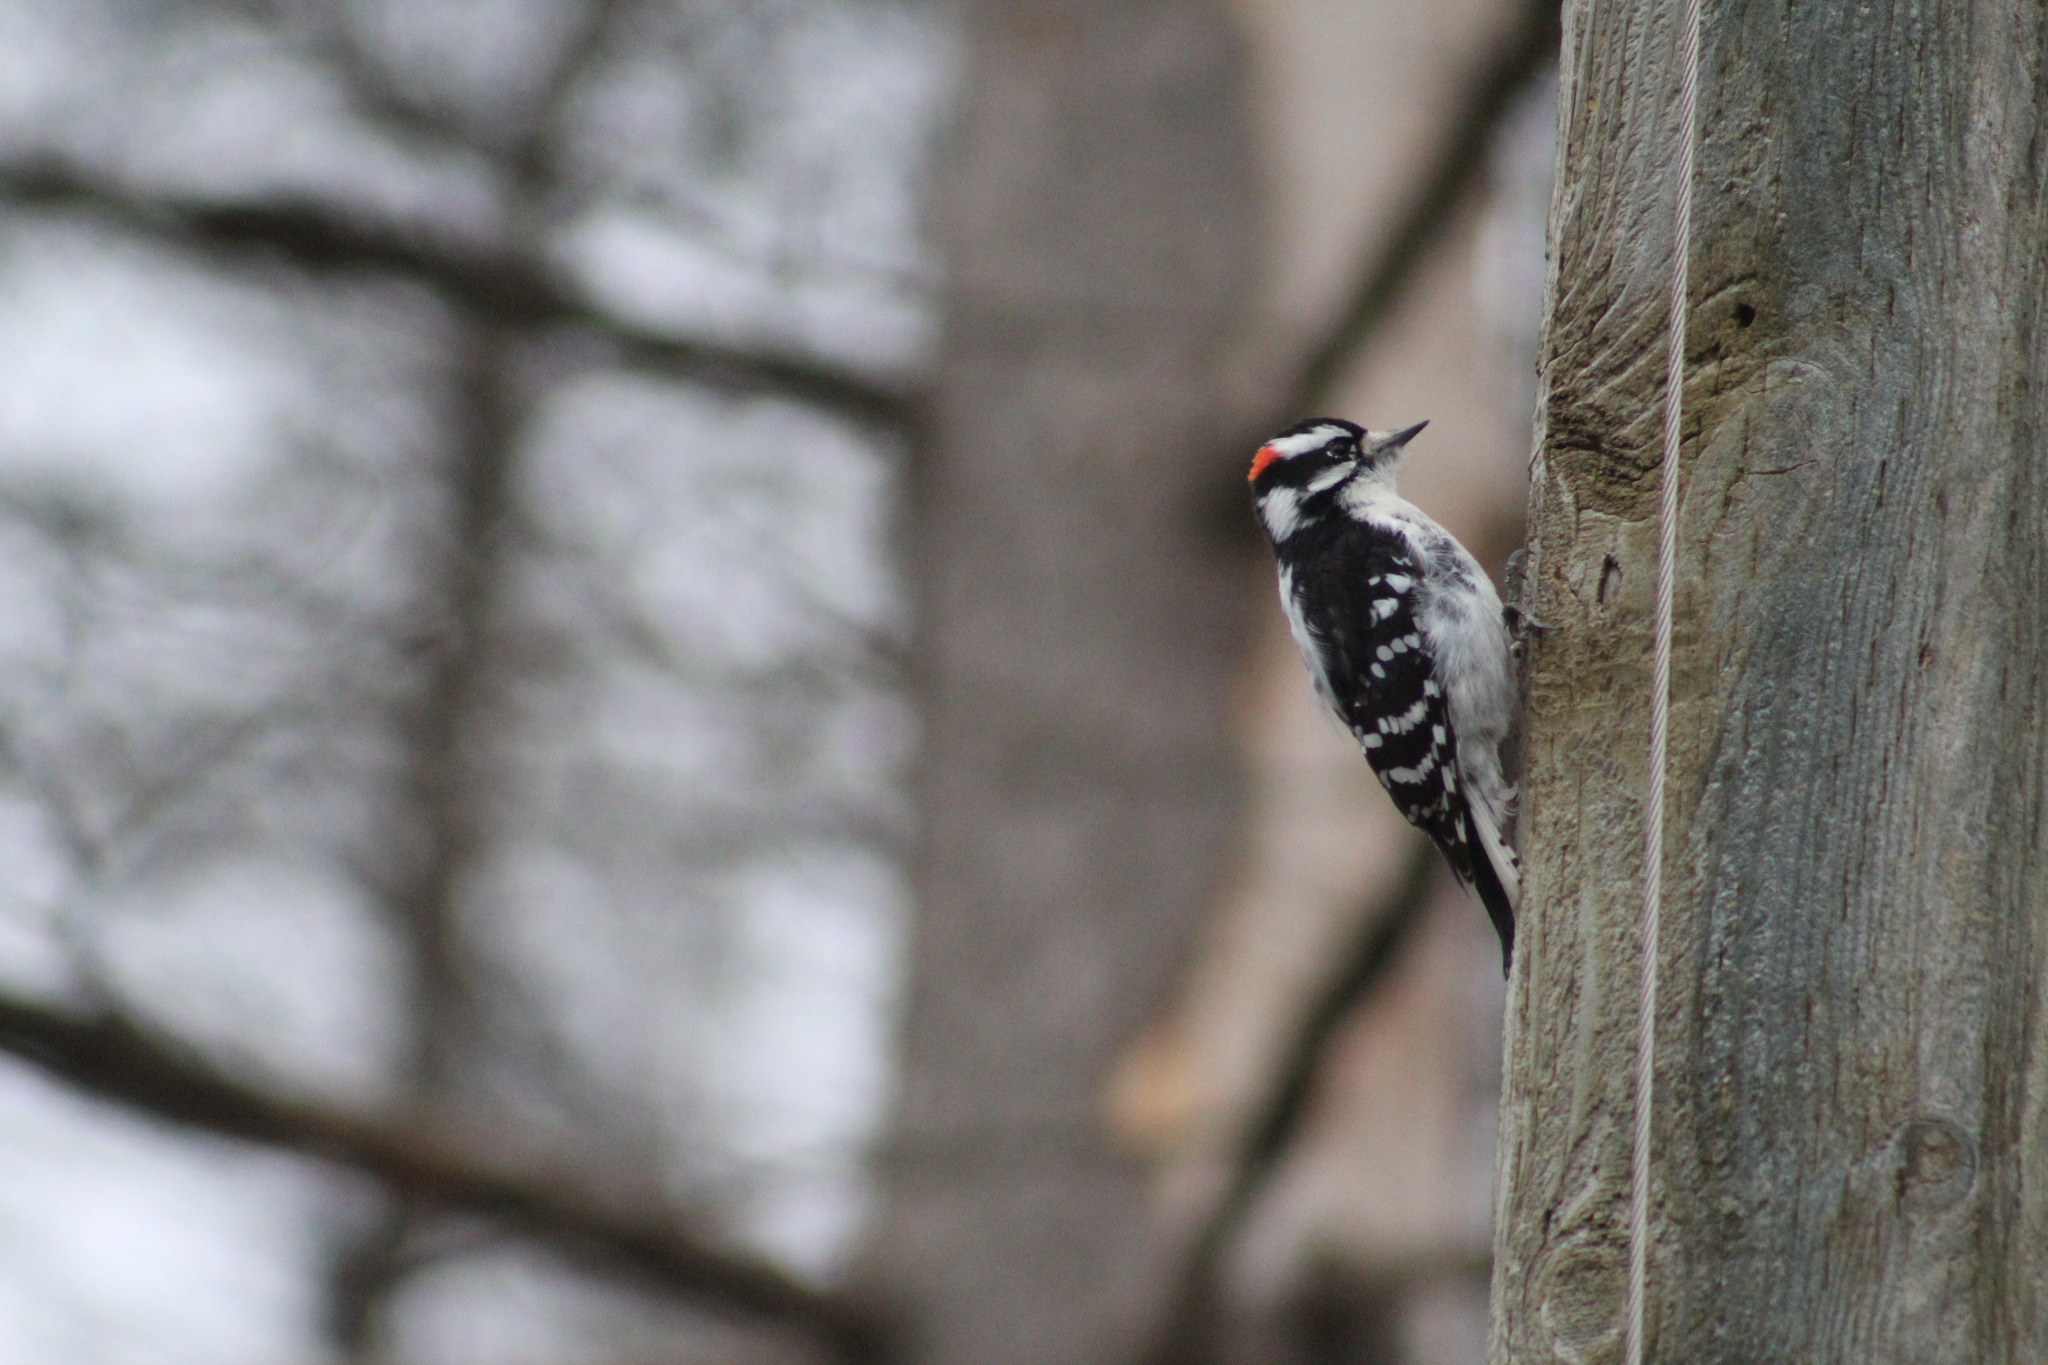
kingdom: Animalia
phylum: Chordata
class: Aves
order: Piciformes
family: Picidae
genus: Dryobates
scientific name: Dryobates pubescens
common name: Downy woodpecker
